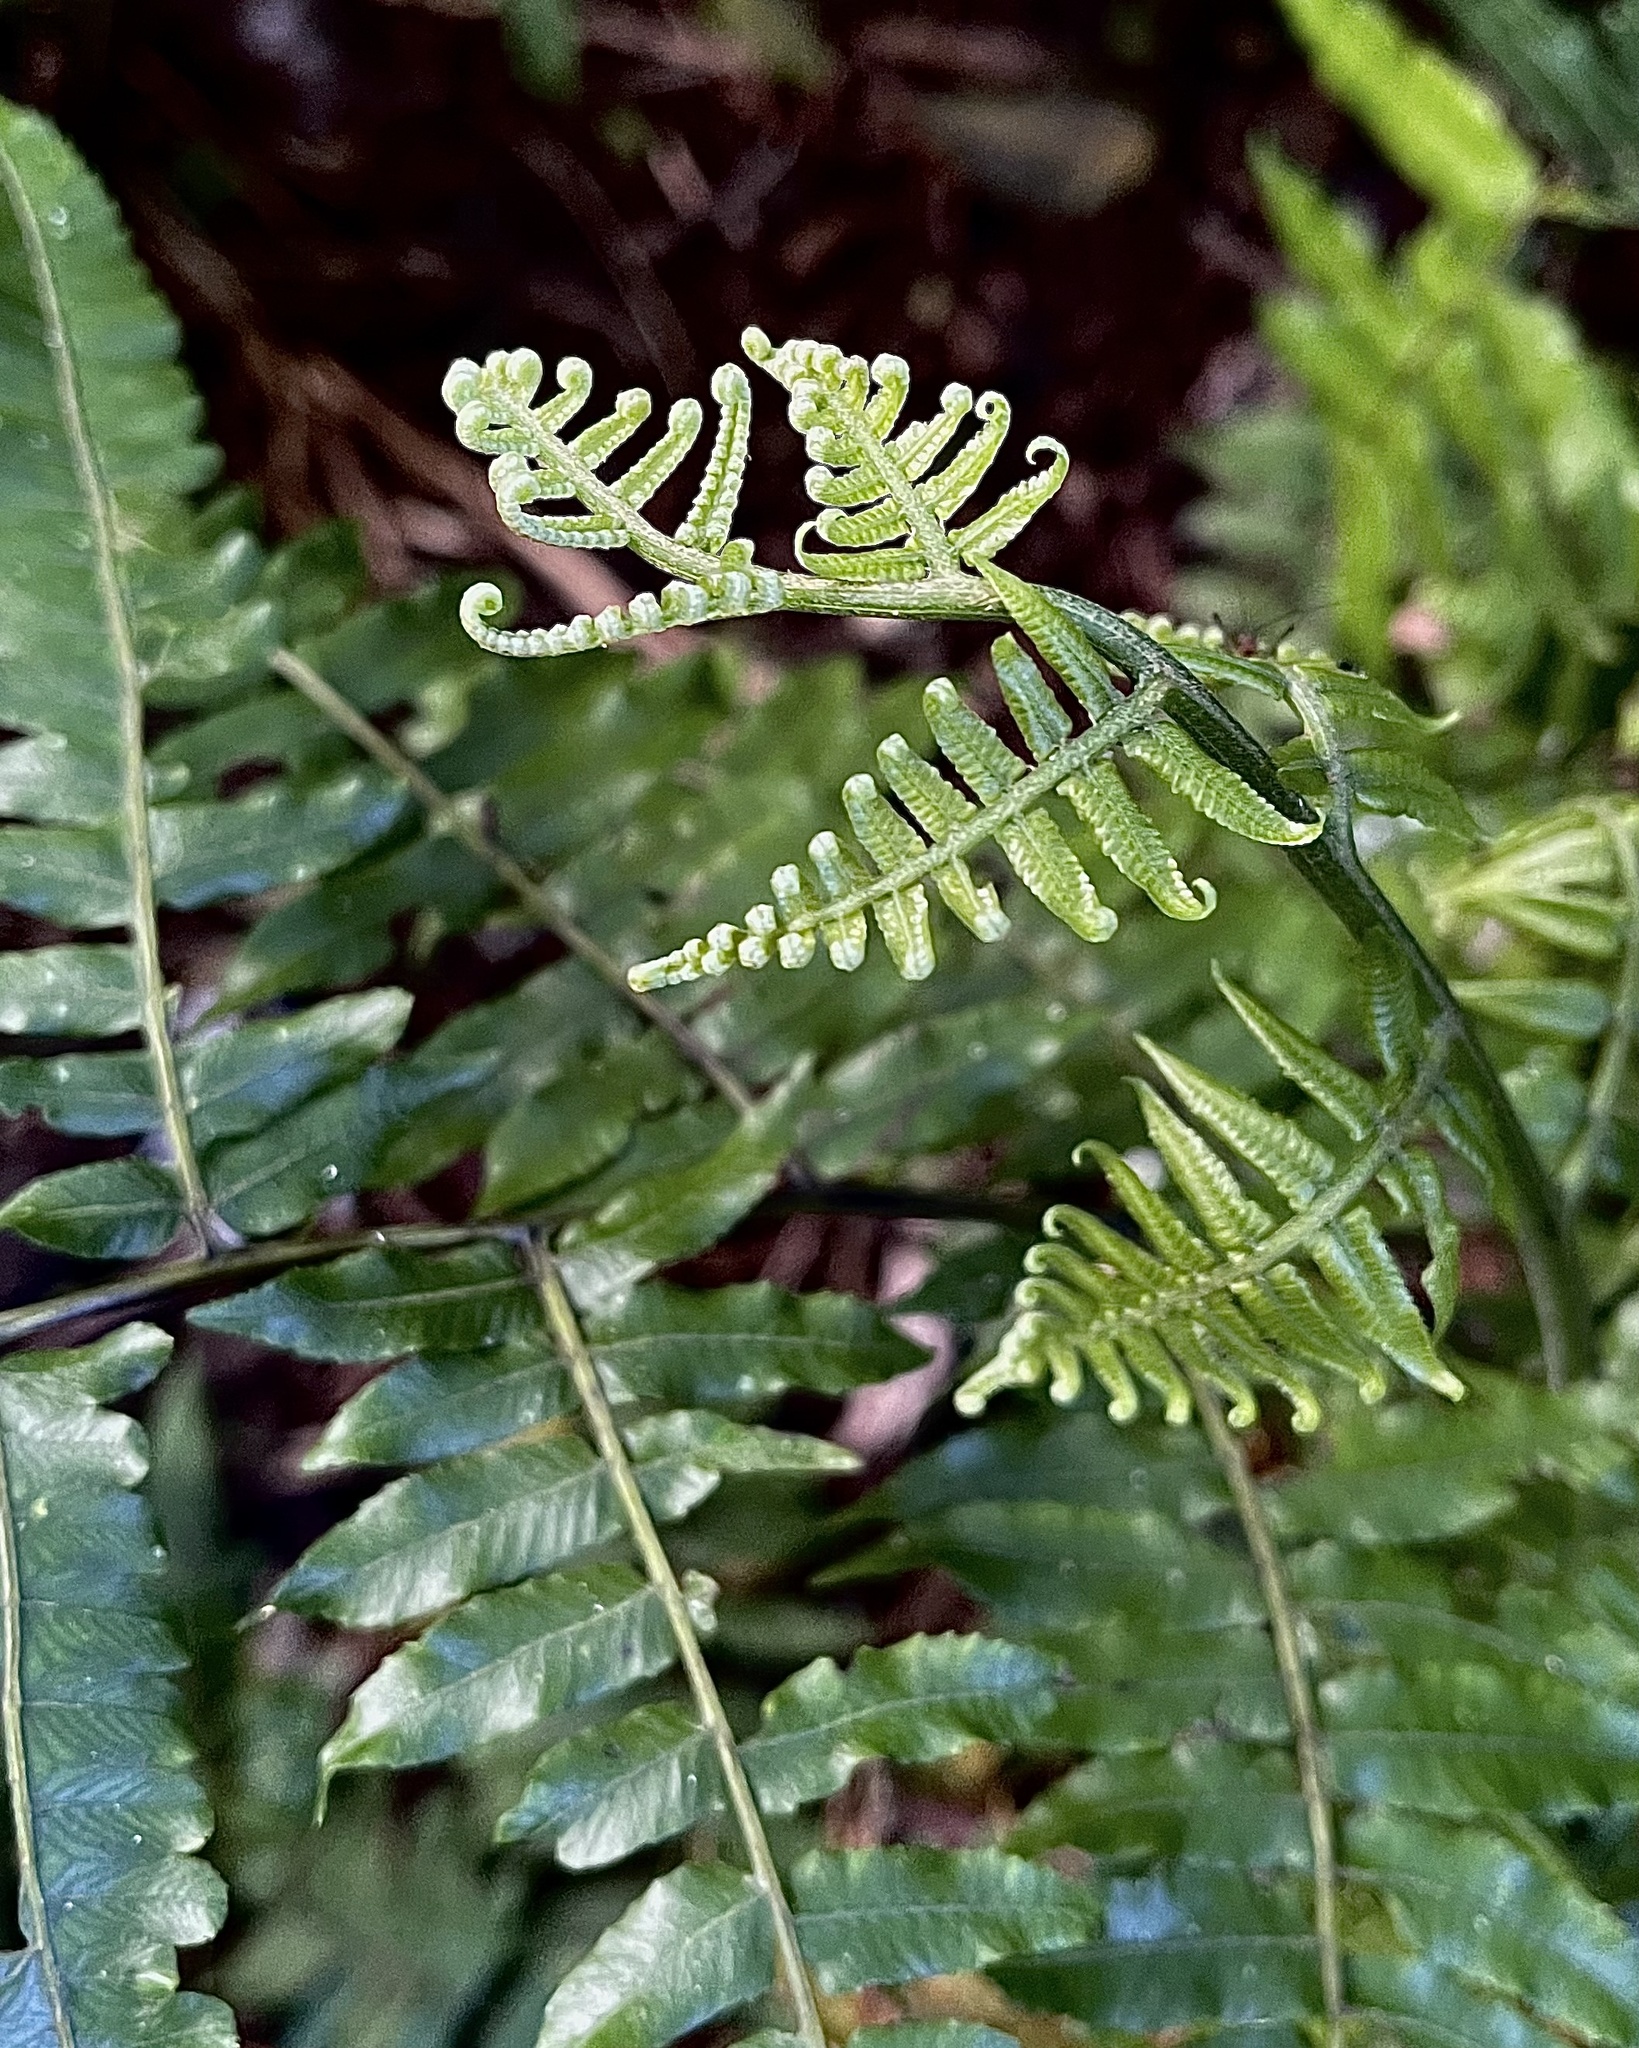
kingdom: Plantae
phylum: Tracheophyta
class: Polypodiopsida
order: Polypodiales
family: Athyriaceae
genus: Diplazium
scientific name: Diplazium esculentum
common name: Vegetable fern
